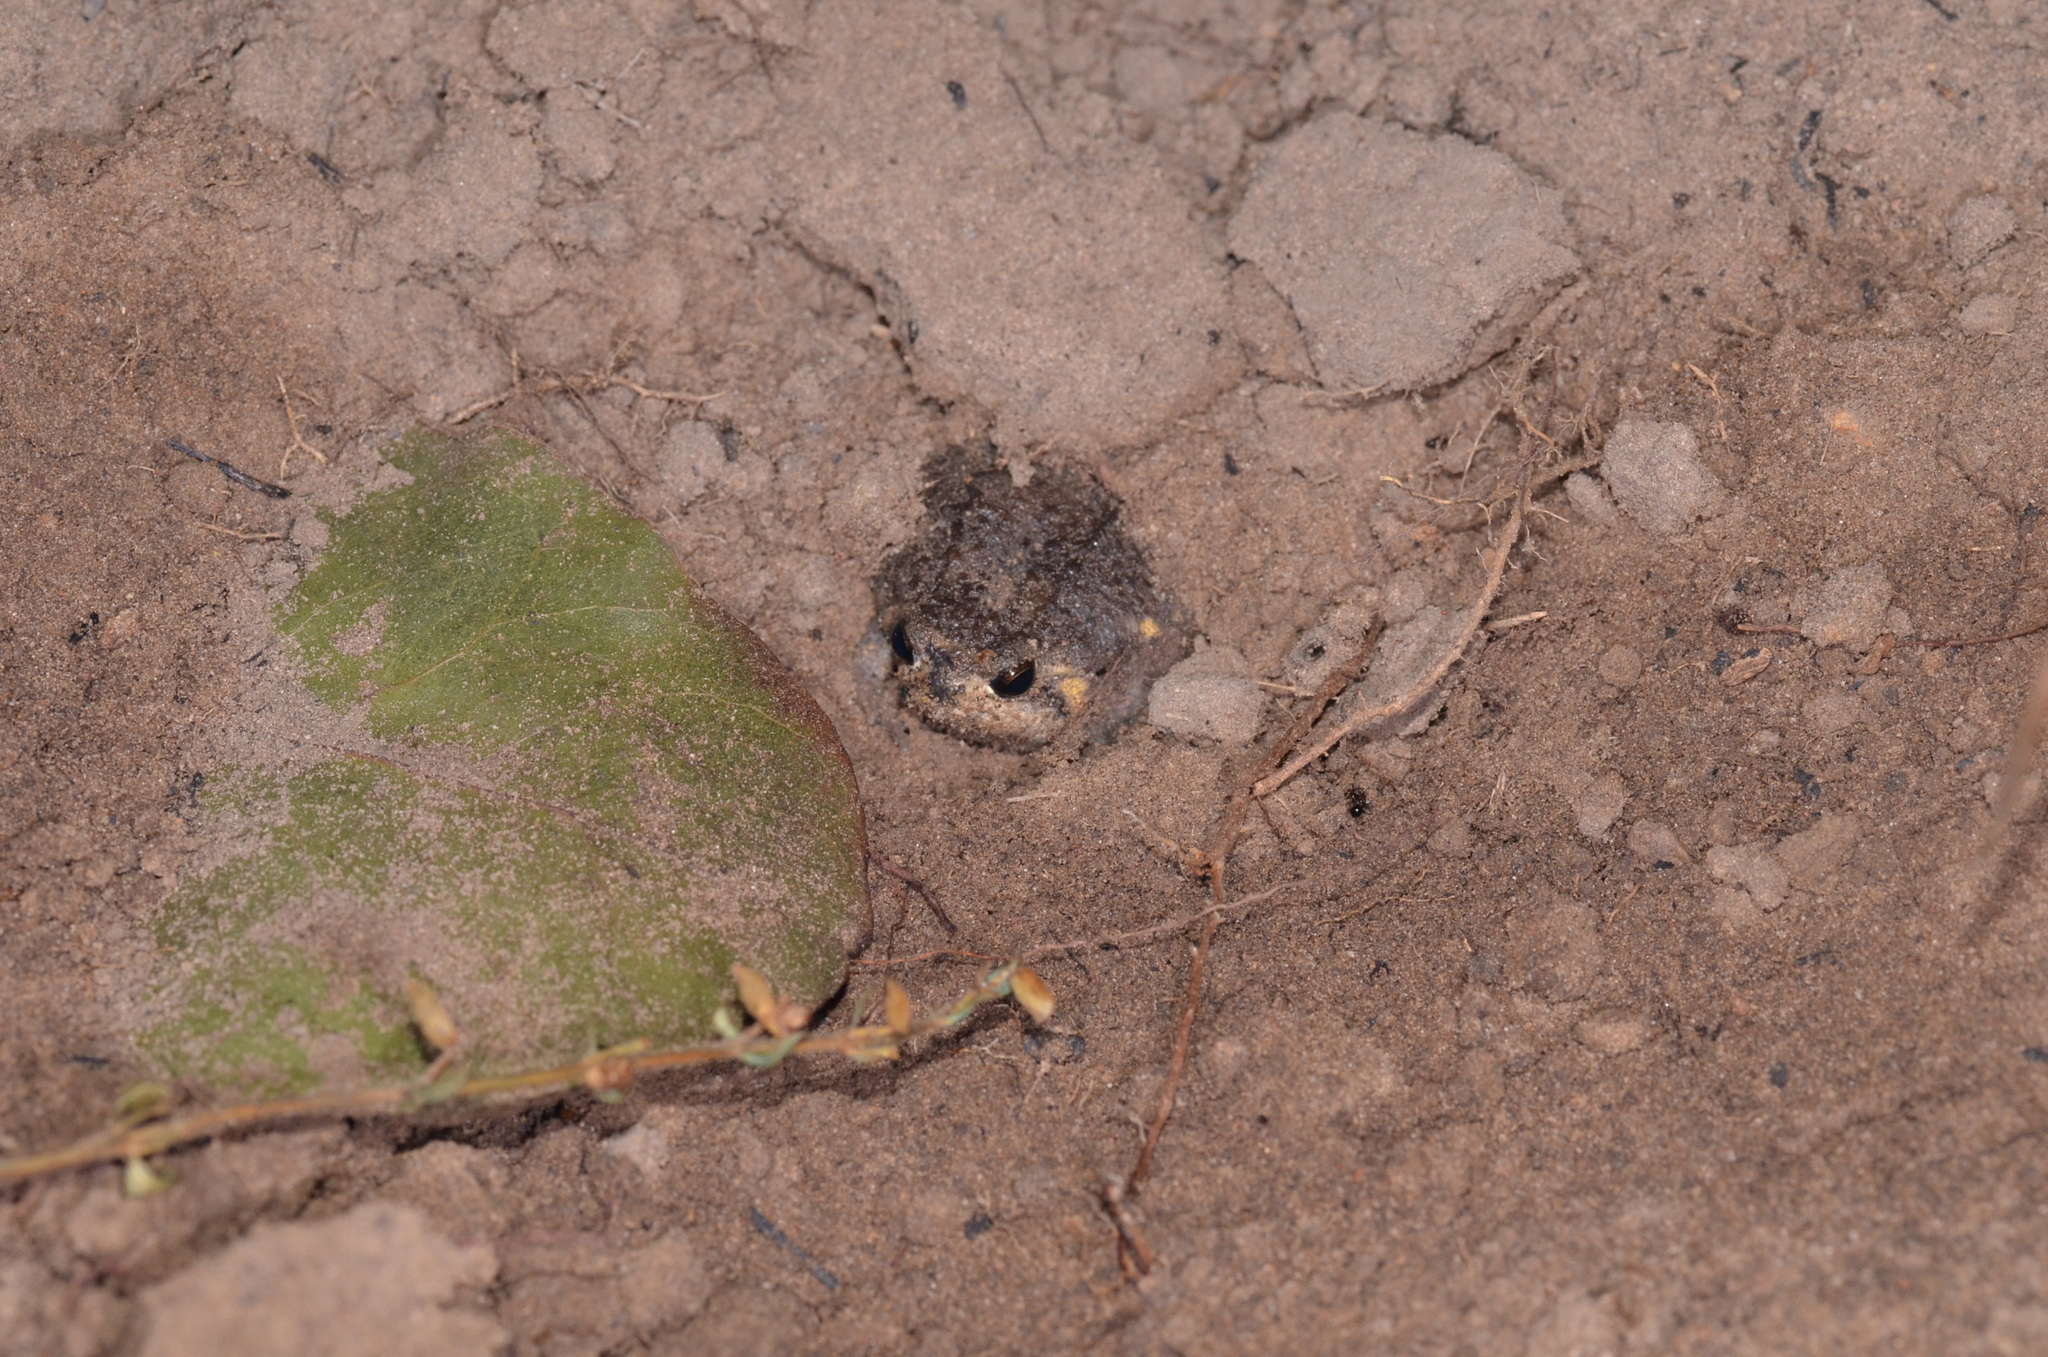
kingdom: Animalia
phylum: Chordata
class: Amphibia
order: Anura
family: Brevicipitidae
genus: Breviceps
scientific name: Breviceps poweri
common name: Power's rain frog
